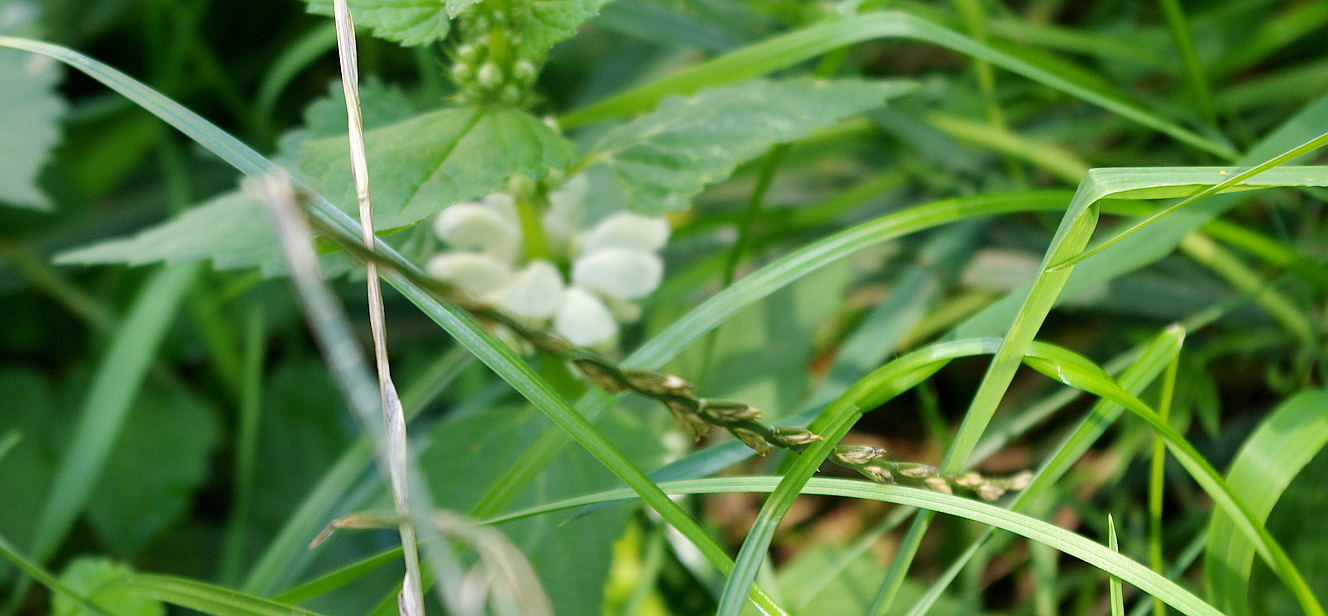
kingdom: Plantae
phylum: Tracheophyta
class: Liliopsida
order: Poales
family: Poaceae
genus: Lolium
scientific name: Lolium perenne
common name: Perennial ryegrass
